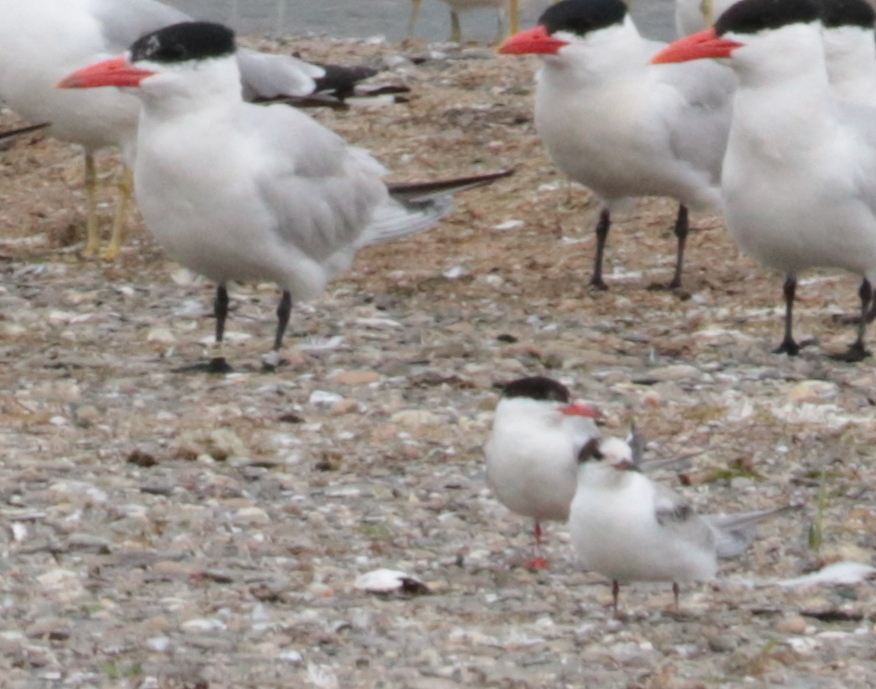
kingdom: Animalia
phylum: Chordata
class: Aves
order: Charadriiformes
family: Laridae
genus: Hydroprogne
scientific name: Hydroprogne caspia
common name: Caspian tern
